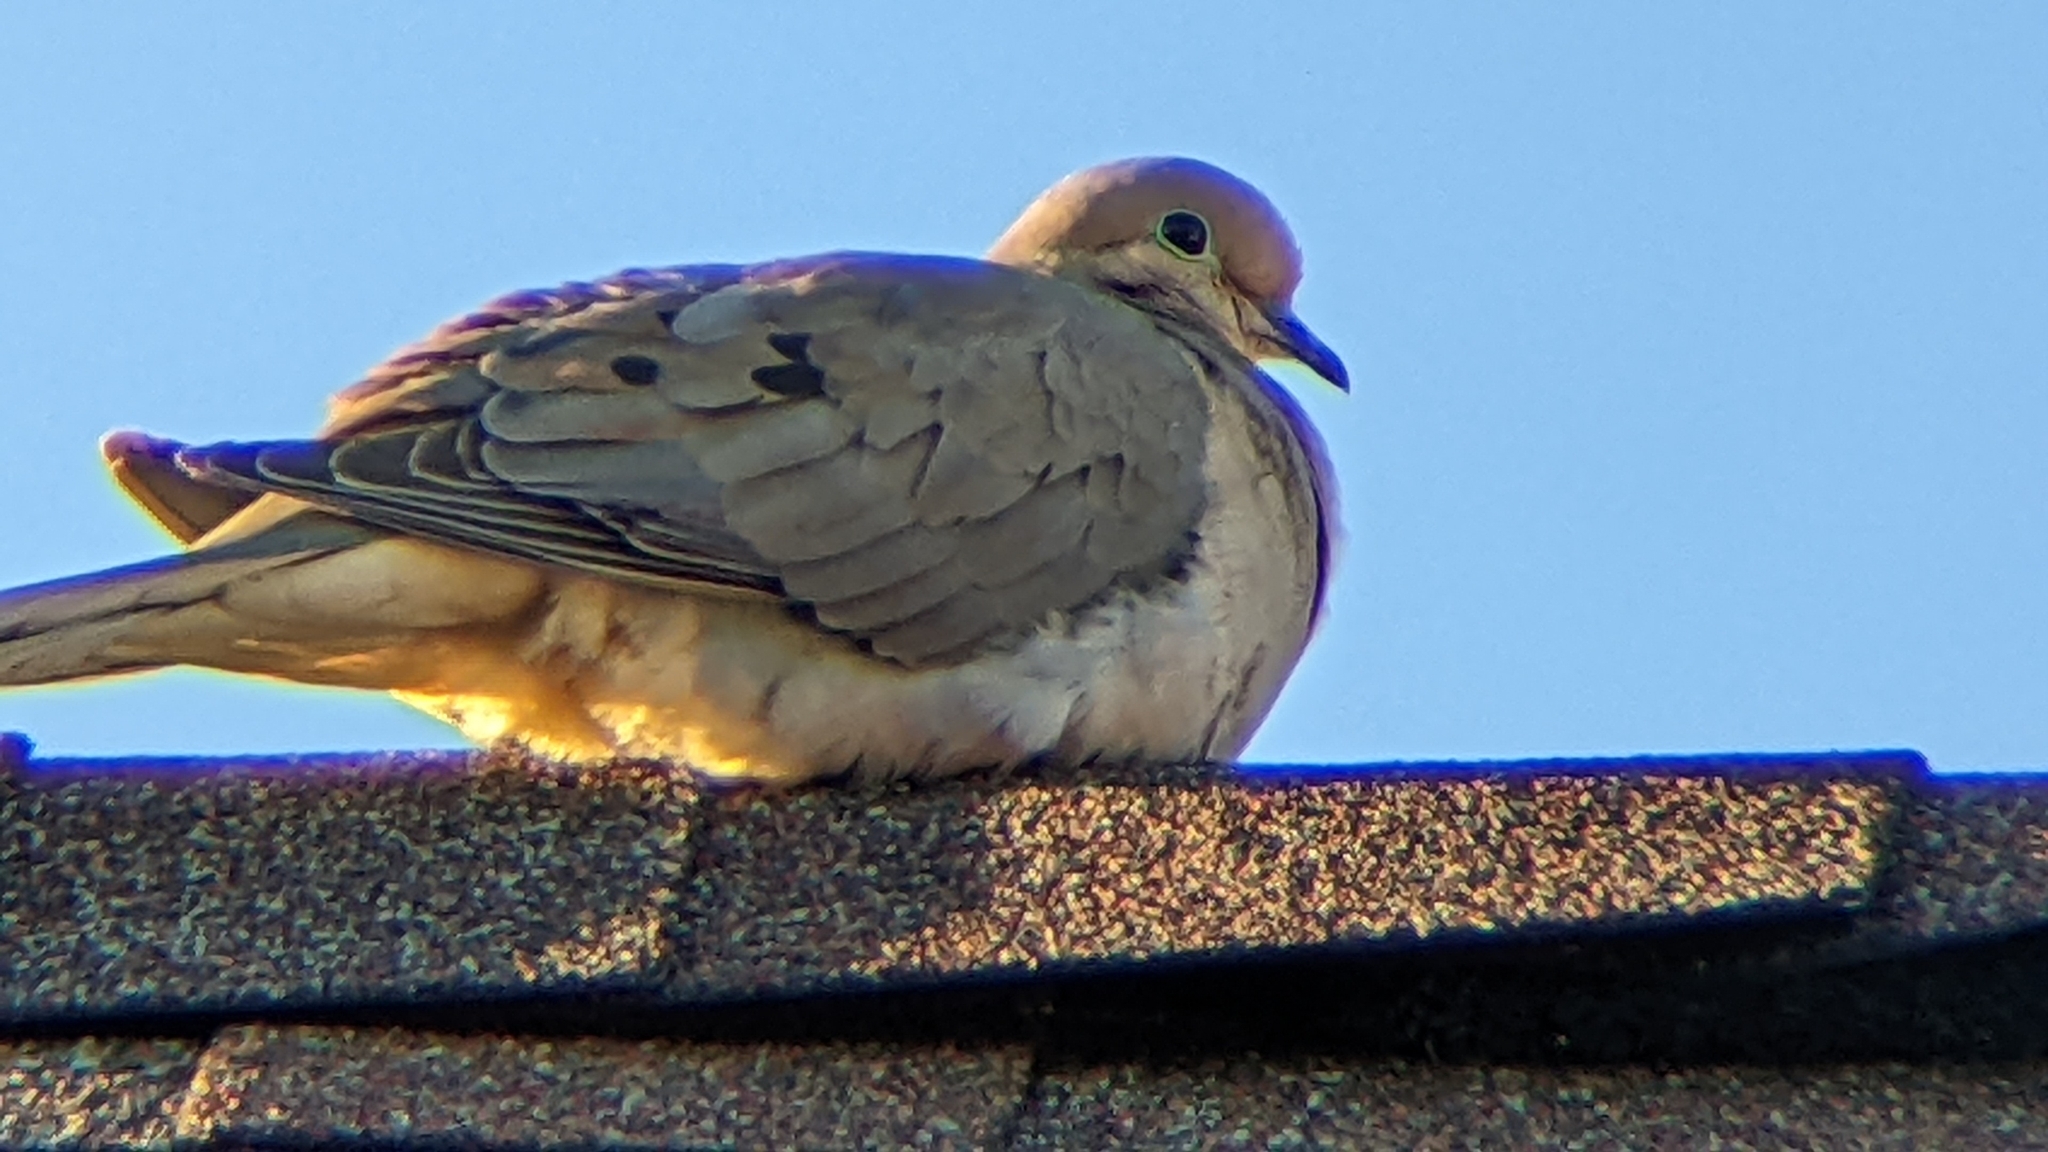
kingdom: Animalia
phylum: Chordata
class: Aves
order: Columbiformes
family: Columbidae
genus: Zenaida
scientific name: Zenaida macroura
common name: Mourning dove
